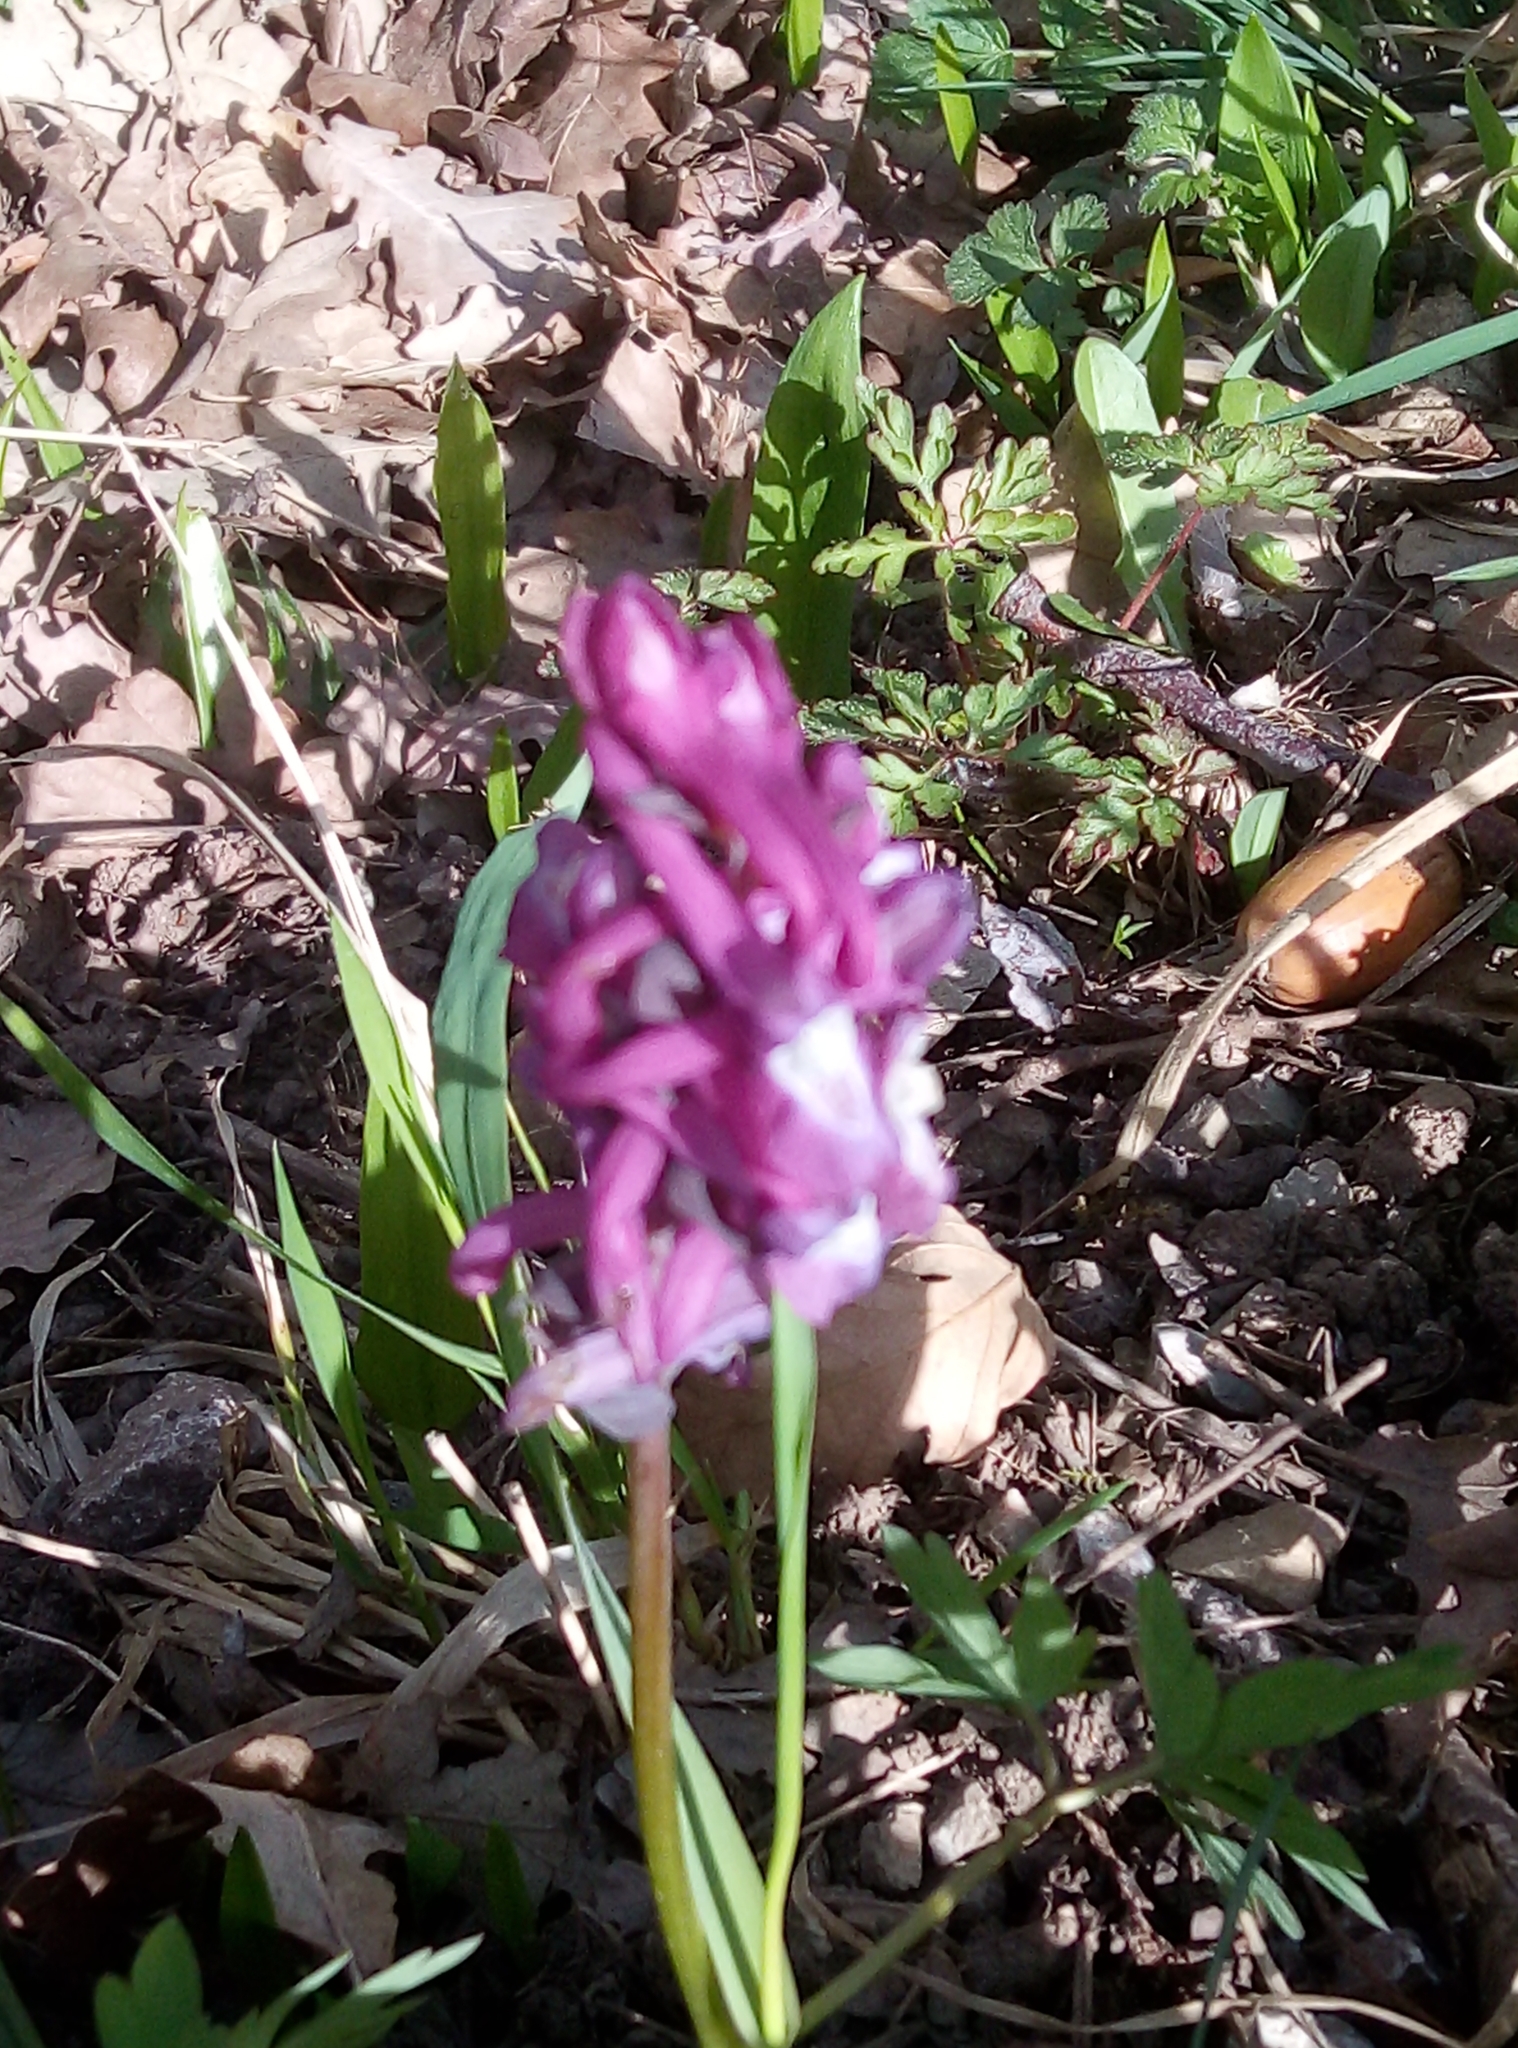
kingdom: Plantae
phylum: Tracheophyta
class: Magnoliopsida
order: Ranunculales
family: Papaveraceae
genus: Corydalis
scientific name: Corydalis cava
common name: Hollowroot
